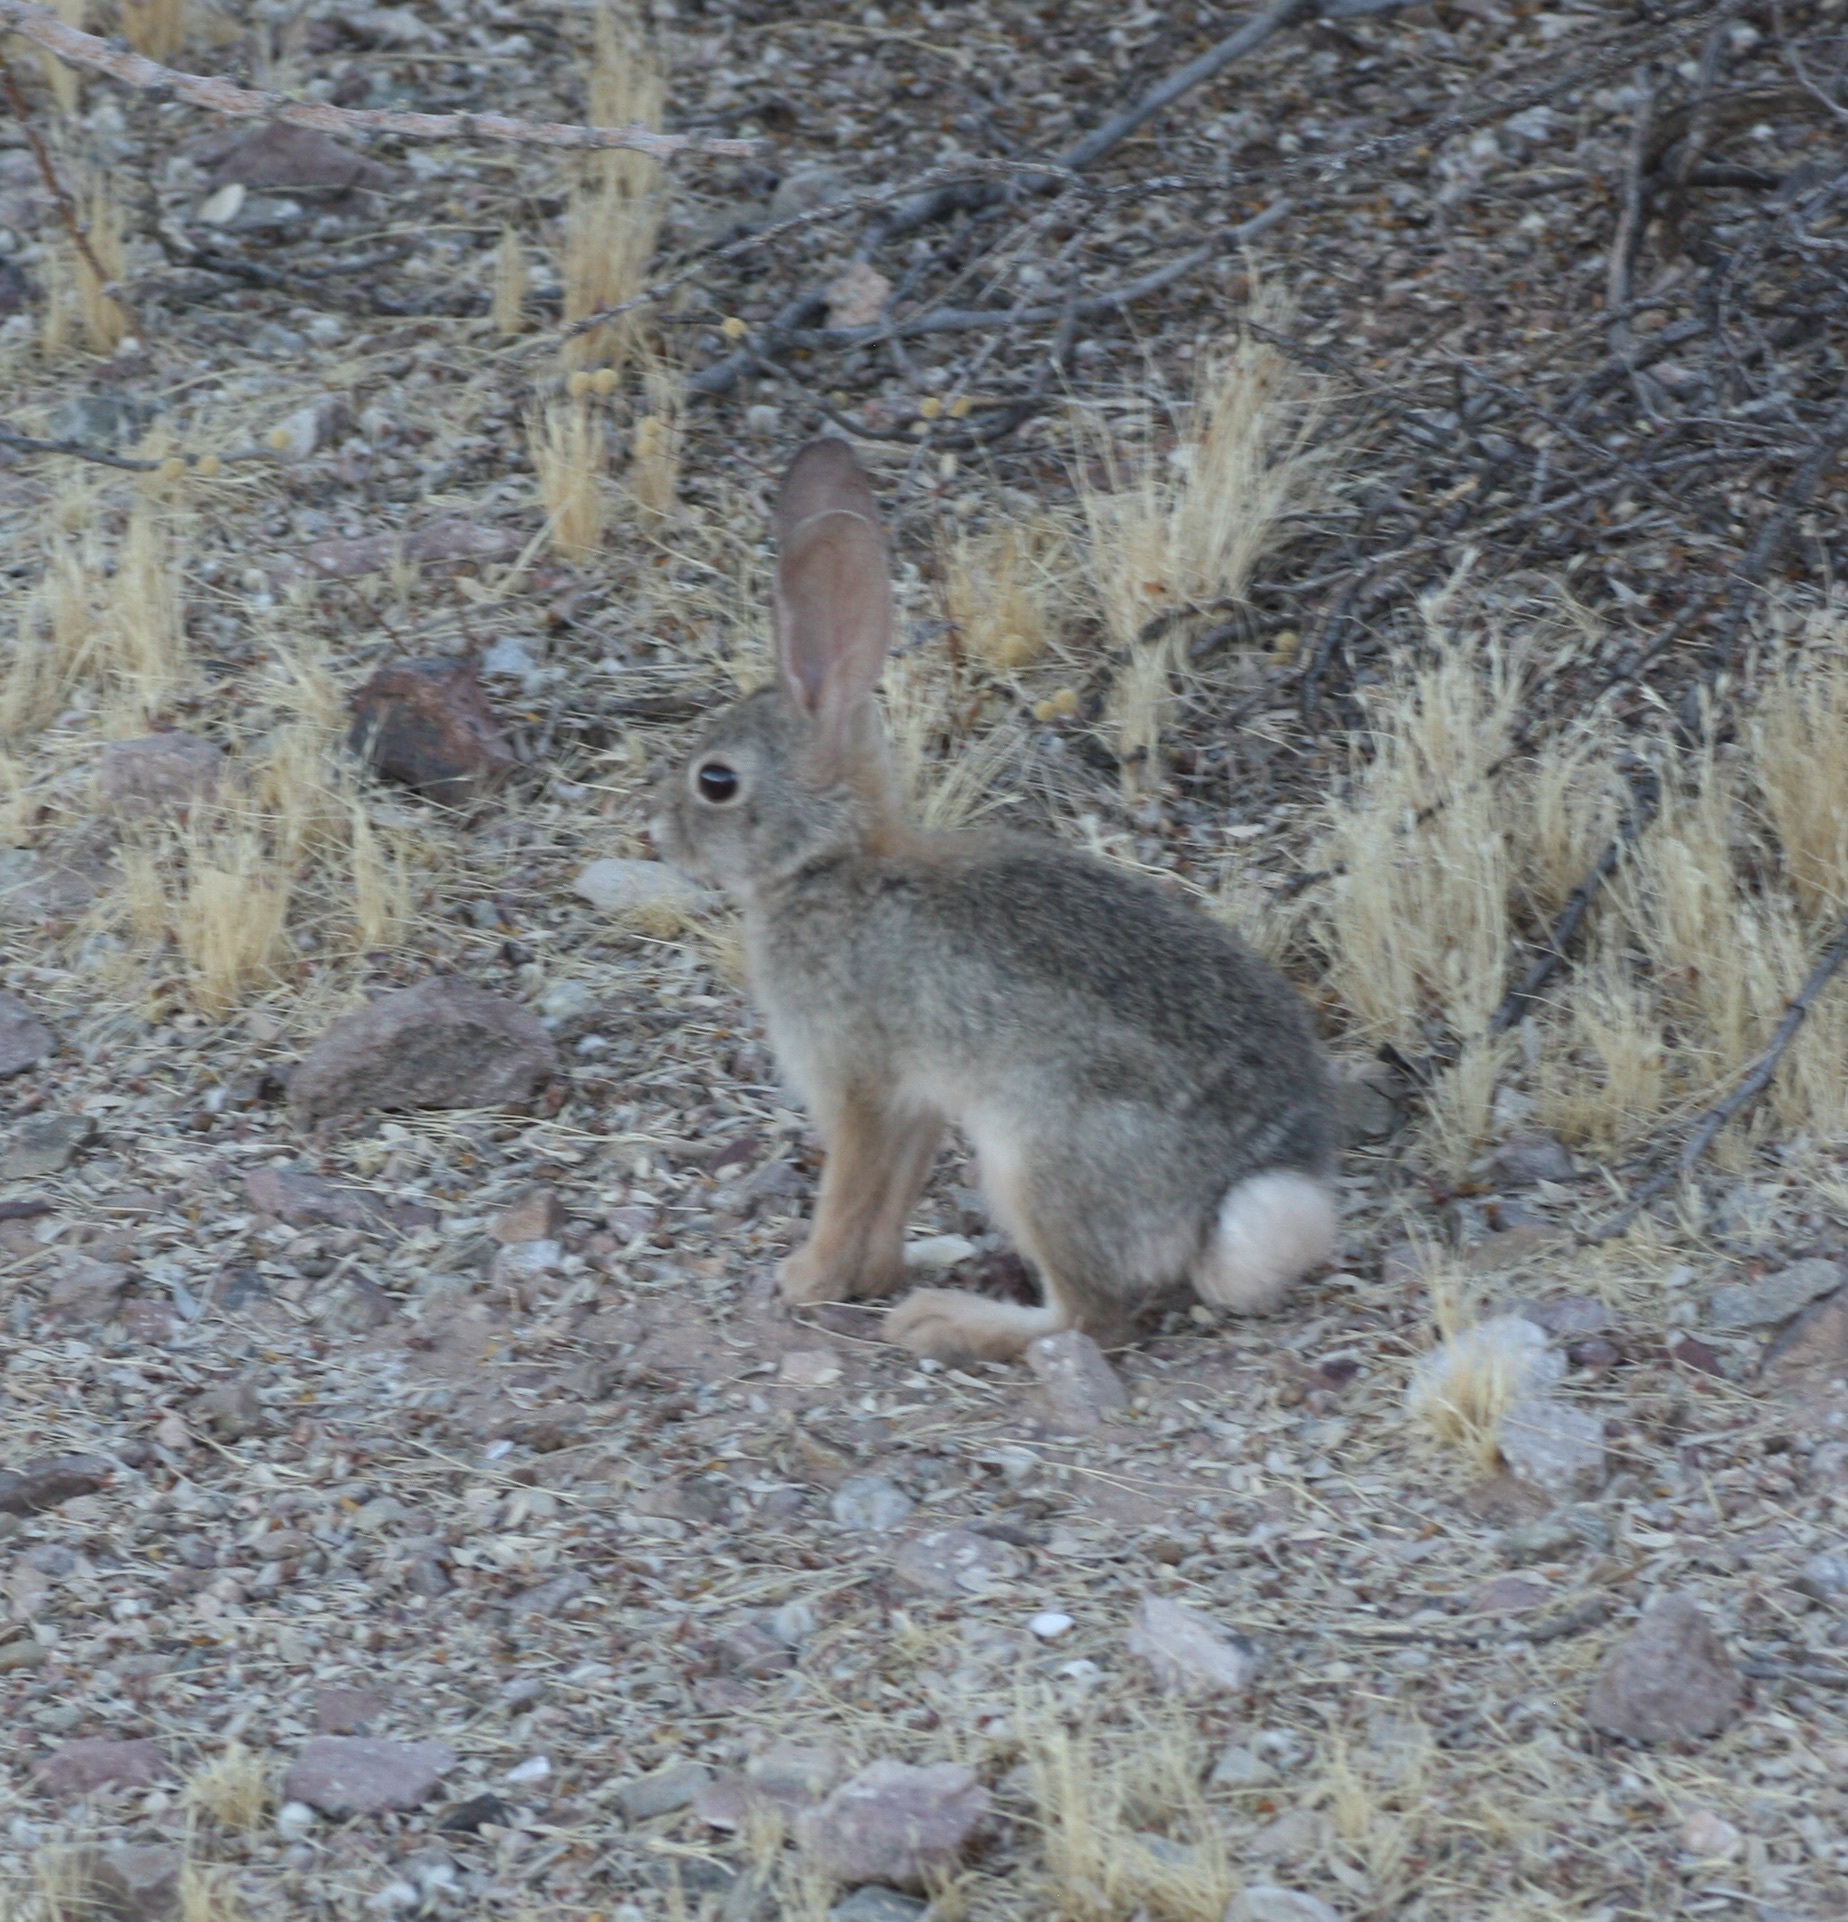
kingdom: Animalia
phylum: Chordata
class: Mammalia
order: Lagomorpha
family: Leporidae
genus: Sylvilagus
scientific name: Sylvilagus audubonii
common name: Desert cottontail
